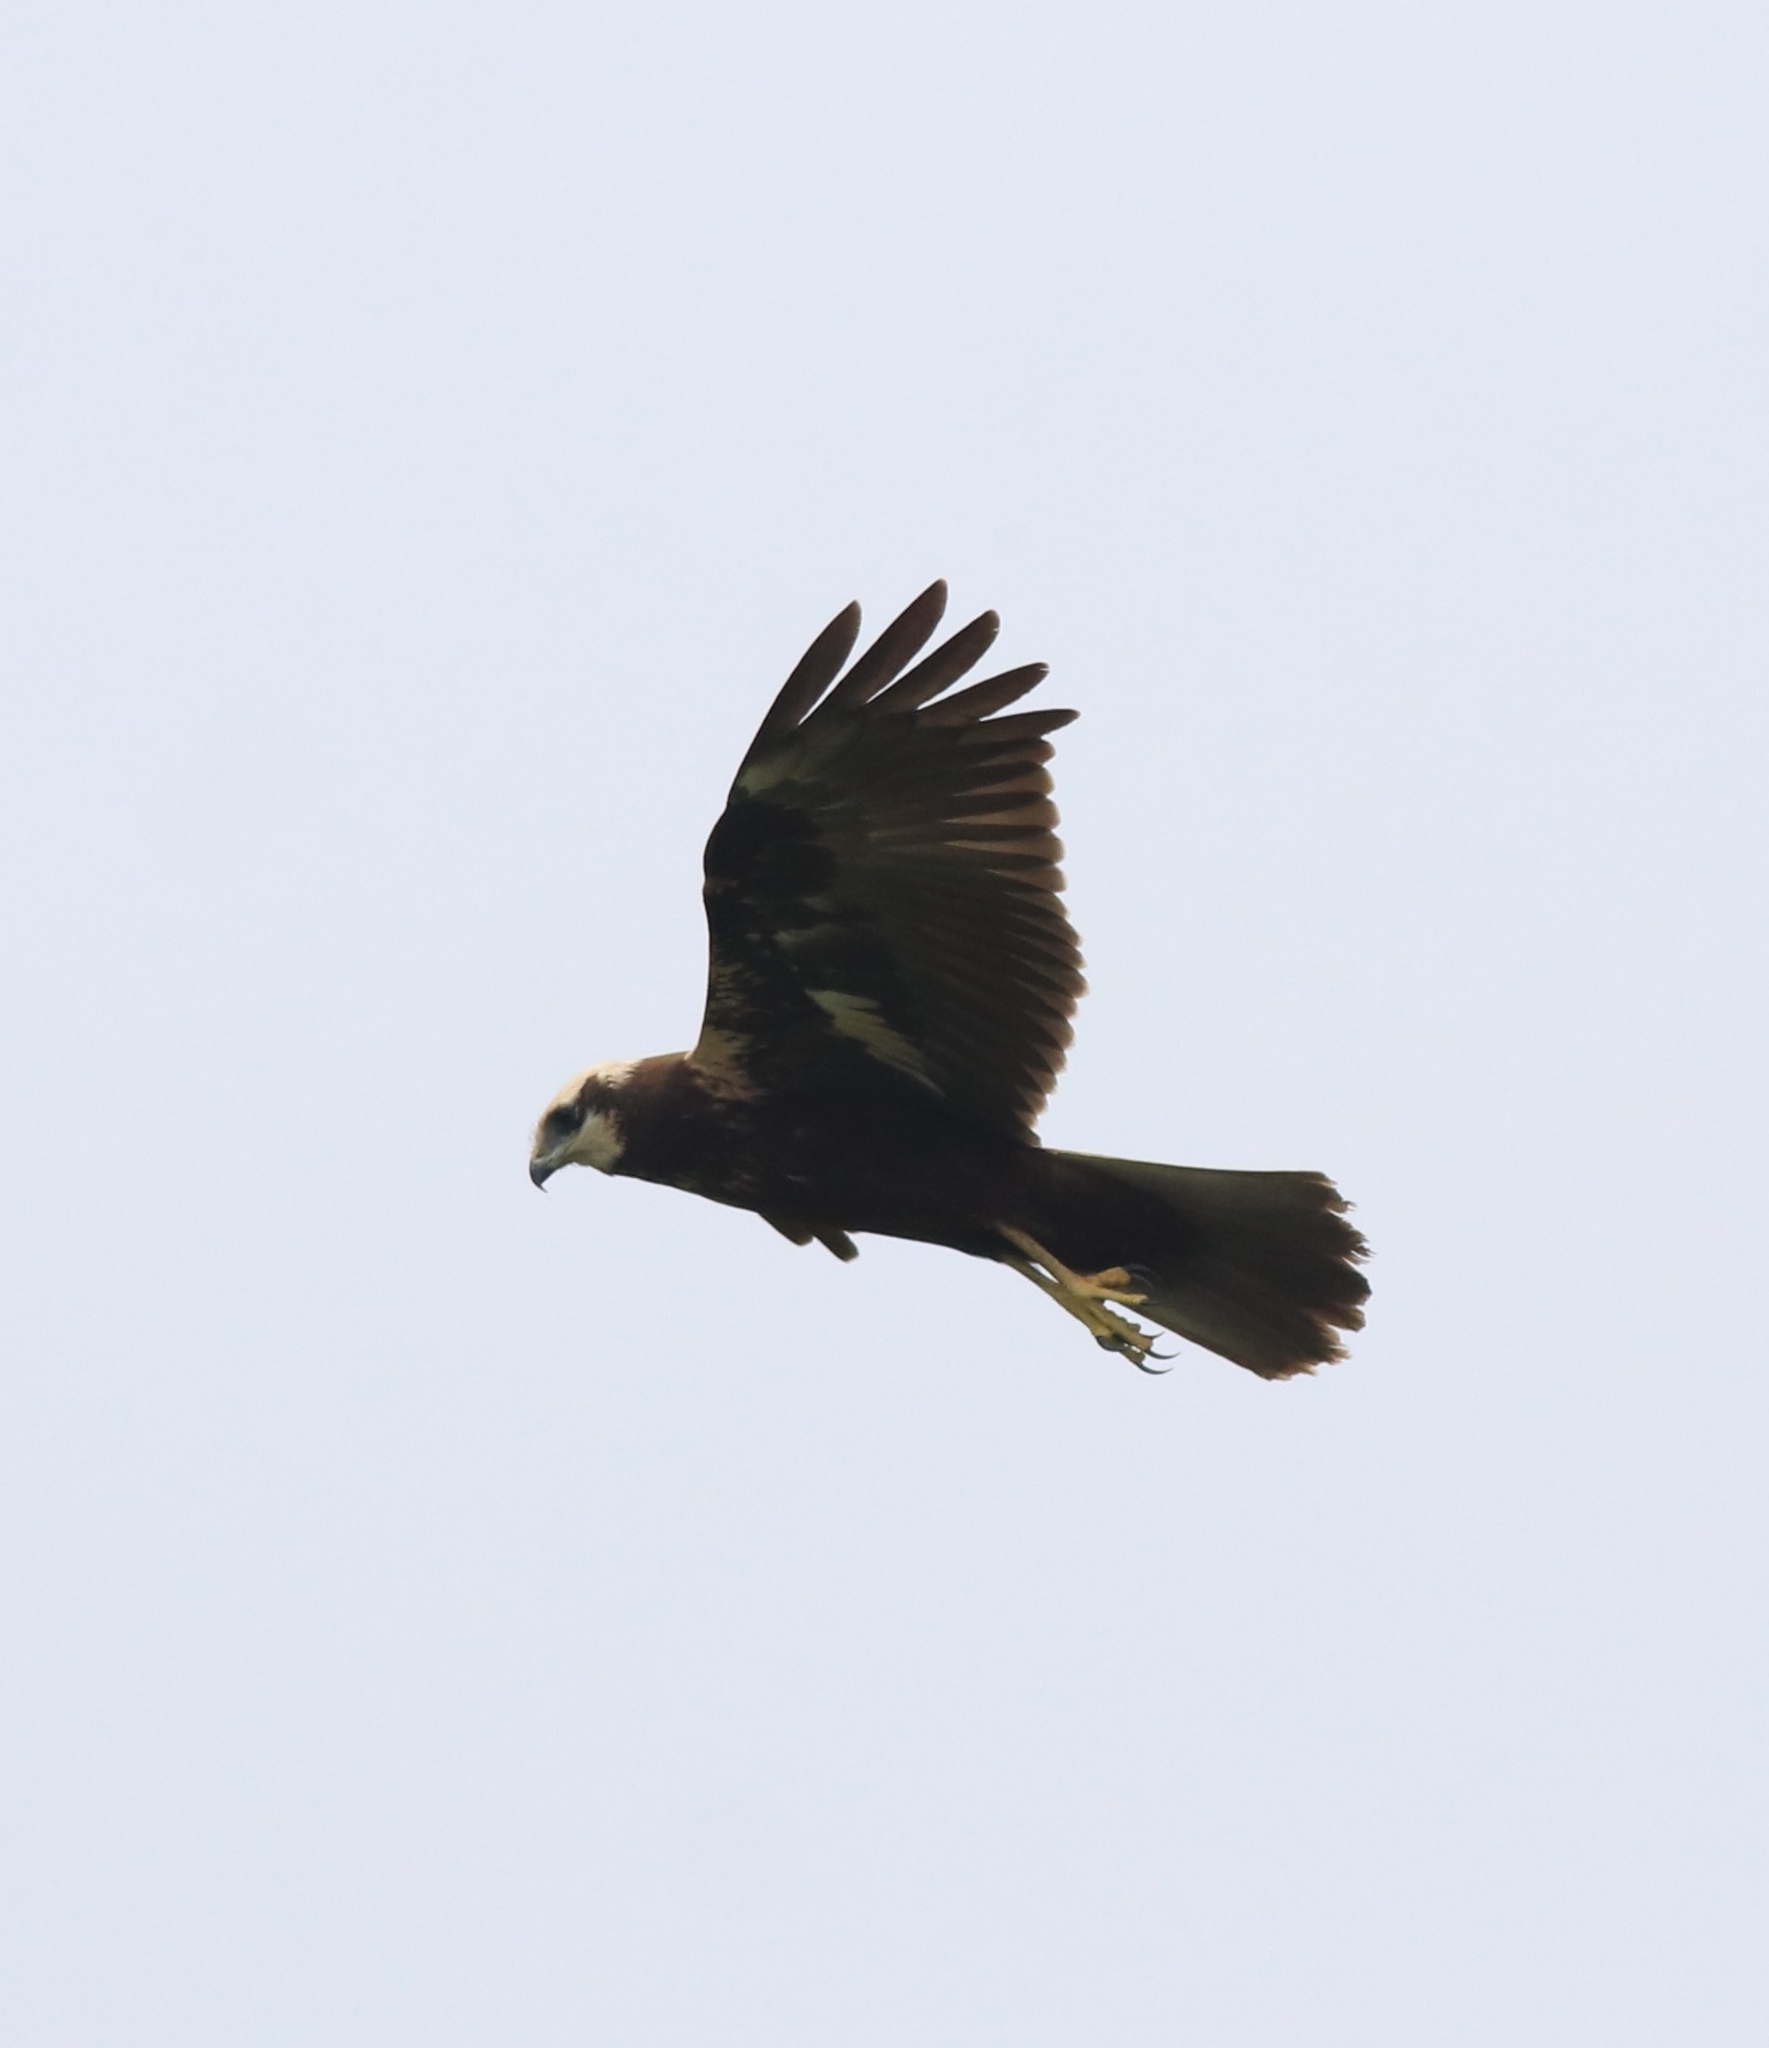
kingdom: Animalia
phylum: Chordata
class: Aves
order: Accipitriformes
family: Accipitridae
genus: Circus
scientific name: Circus aeruginosus
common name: Western marsh harrier
